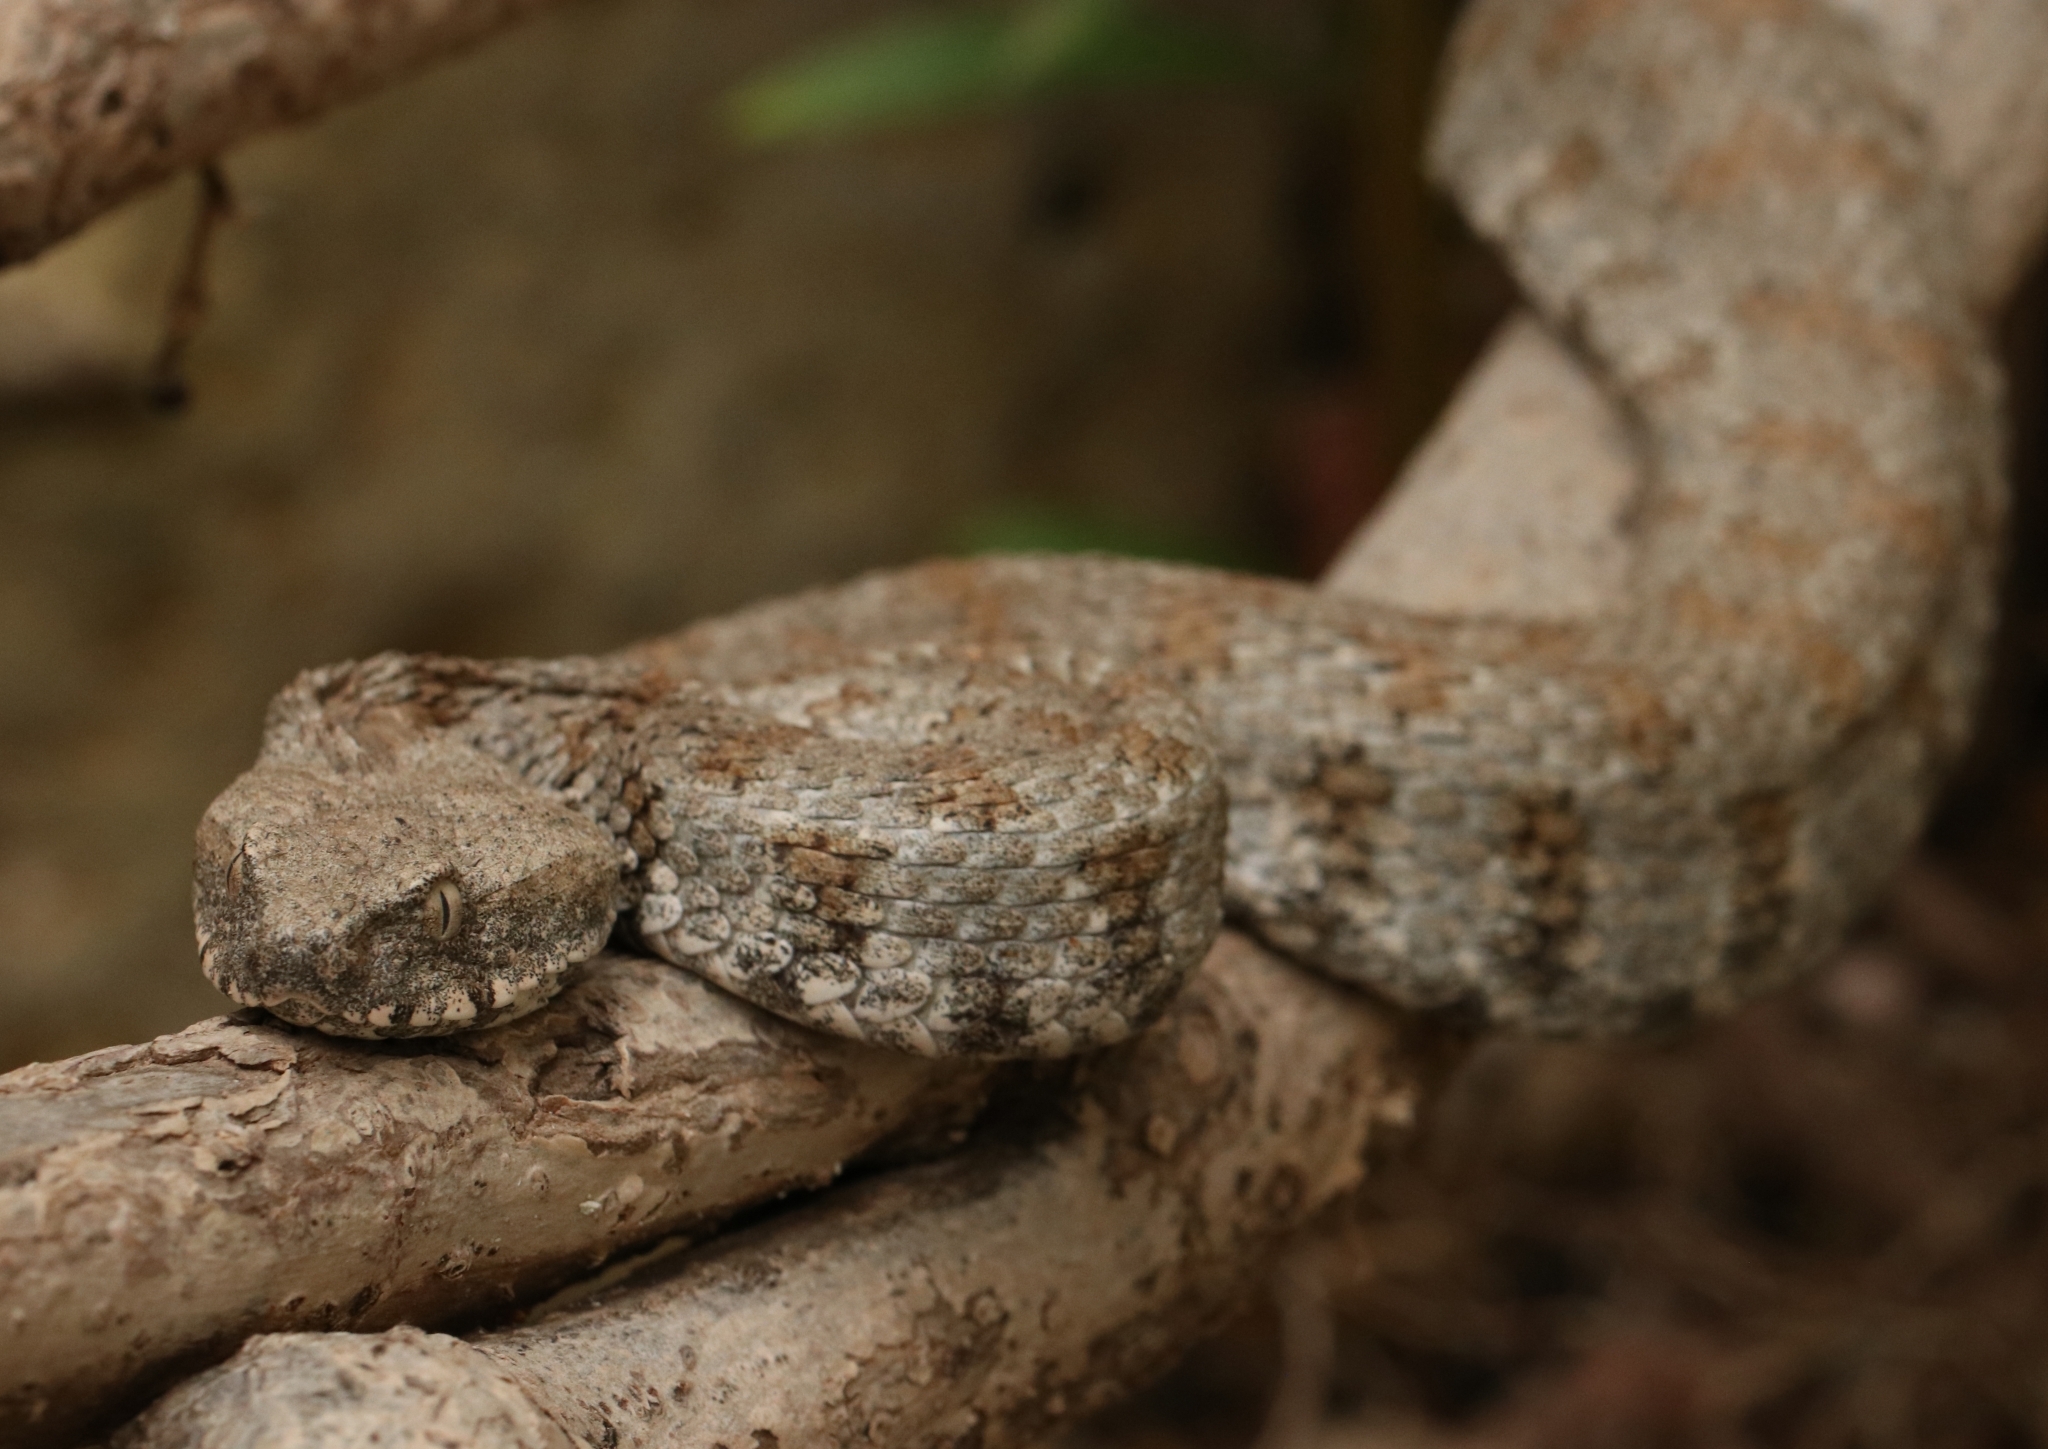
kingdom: Animalia
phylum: Chordata
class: Squamata
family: Viperidae
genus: Macrovipera
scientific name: Macrovipera lebetinus
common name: Levantine viper
